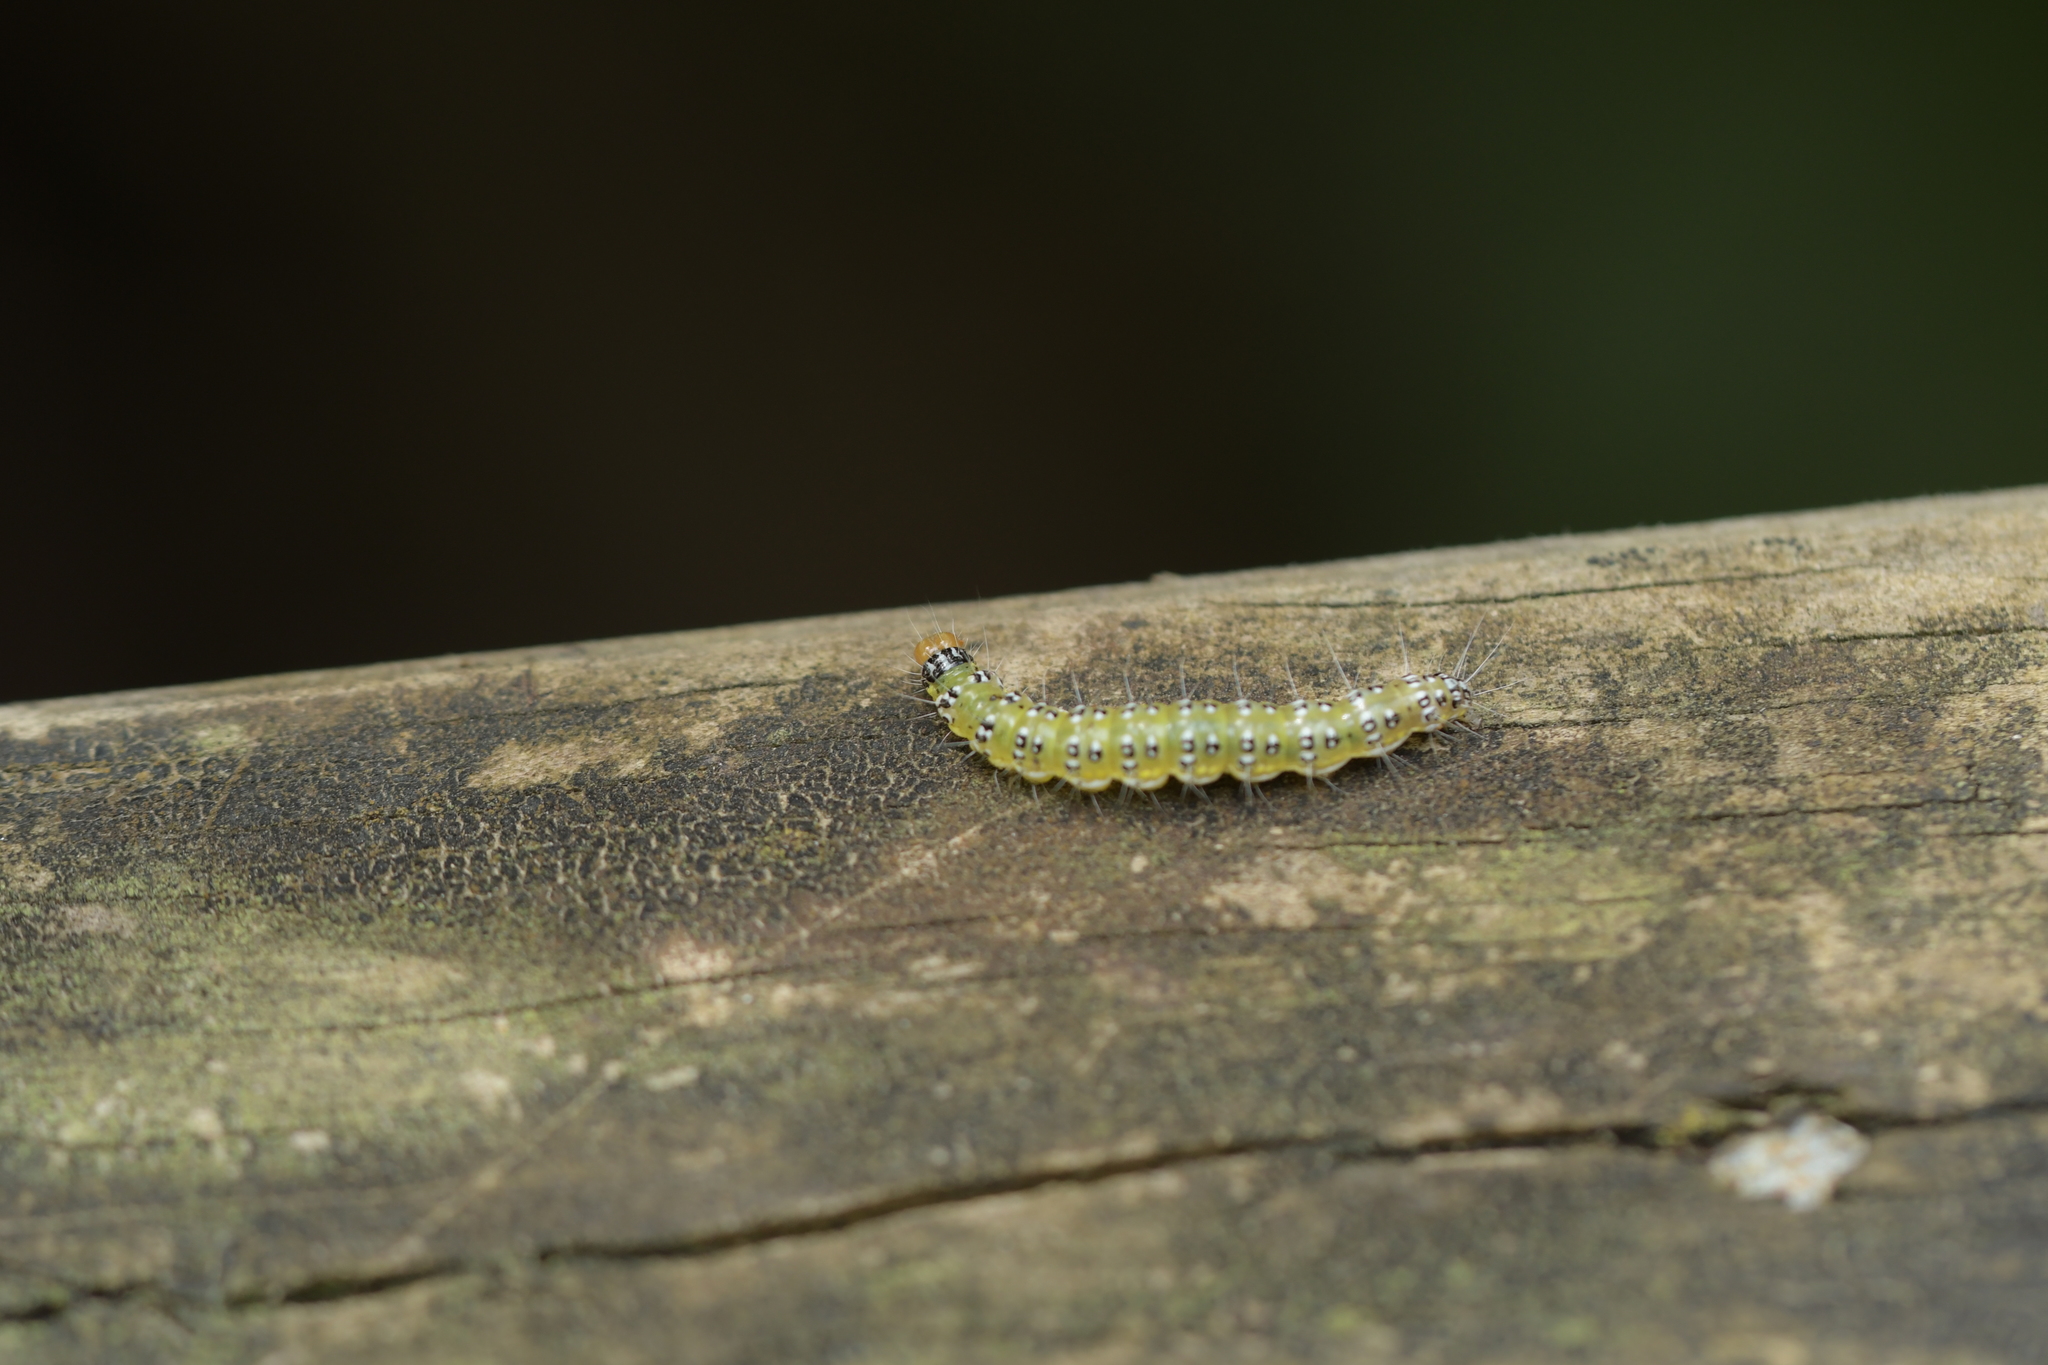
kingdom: Animalia
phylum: Arthropoda
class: Insecta
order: Lepidoptera
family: Crambidae
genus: Uresiphita
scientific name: Uresiphita
